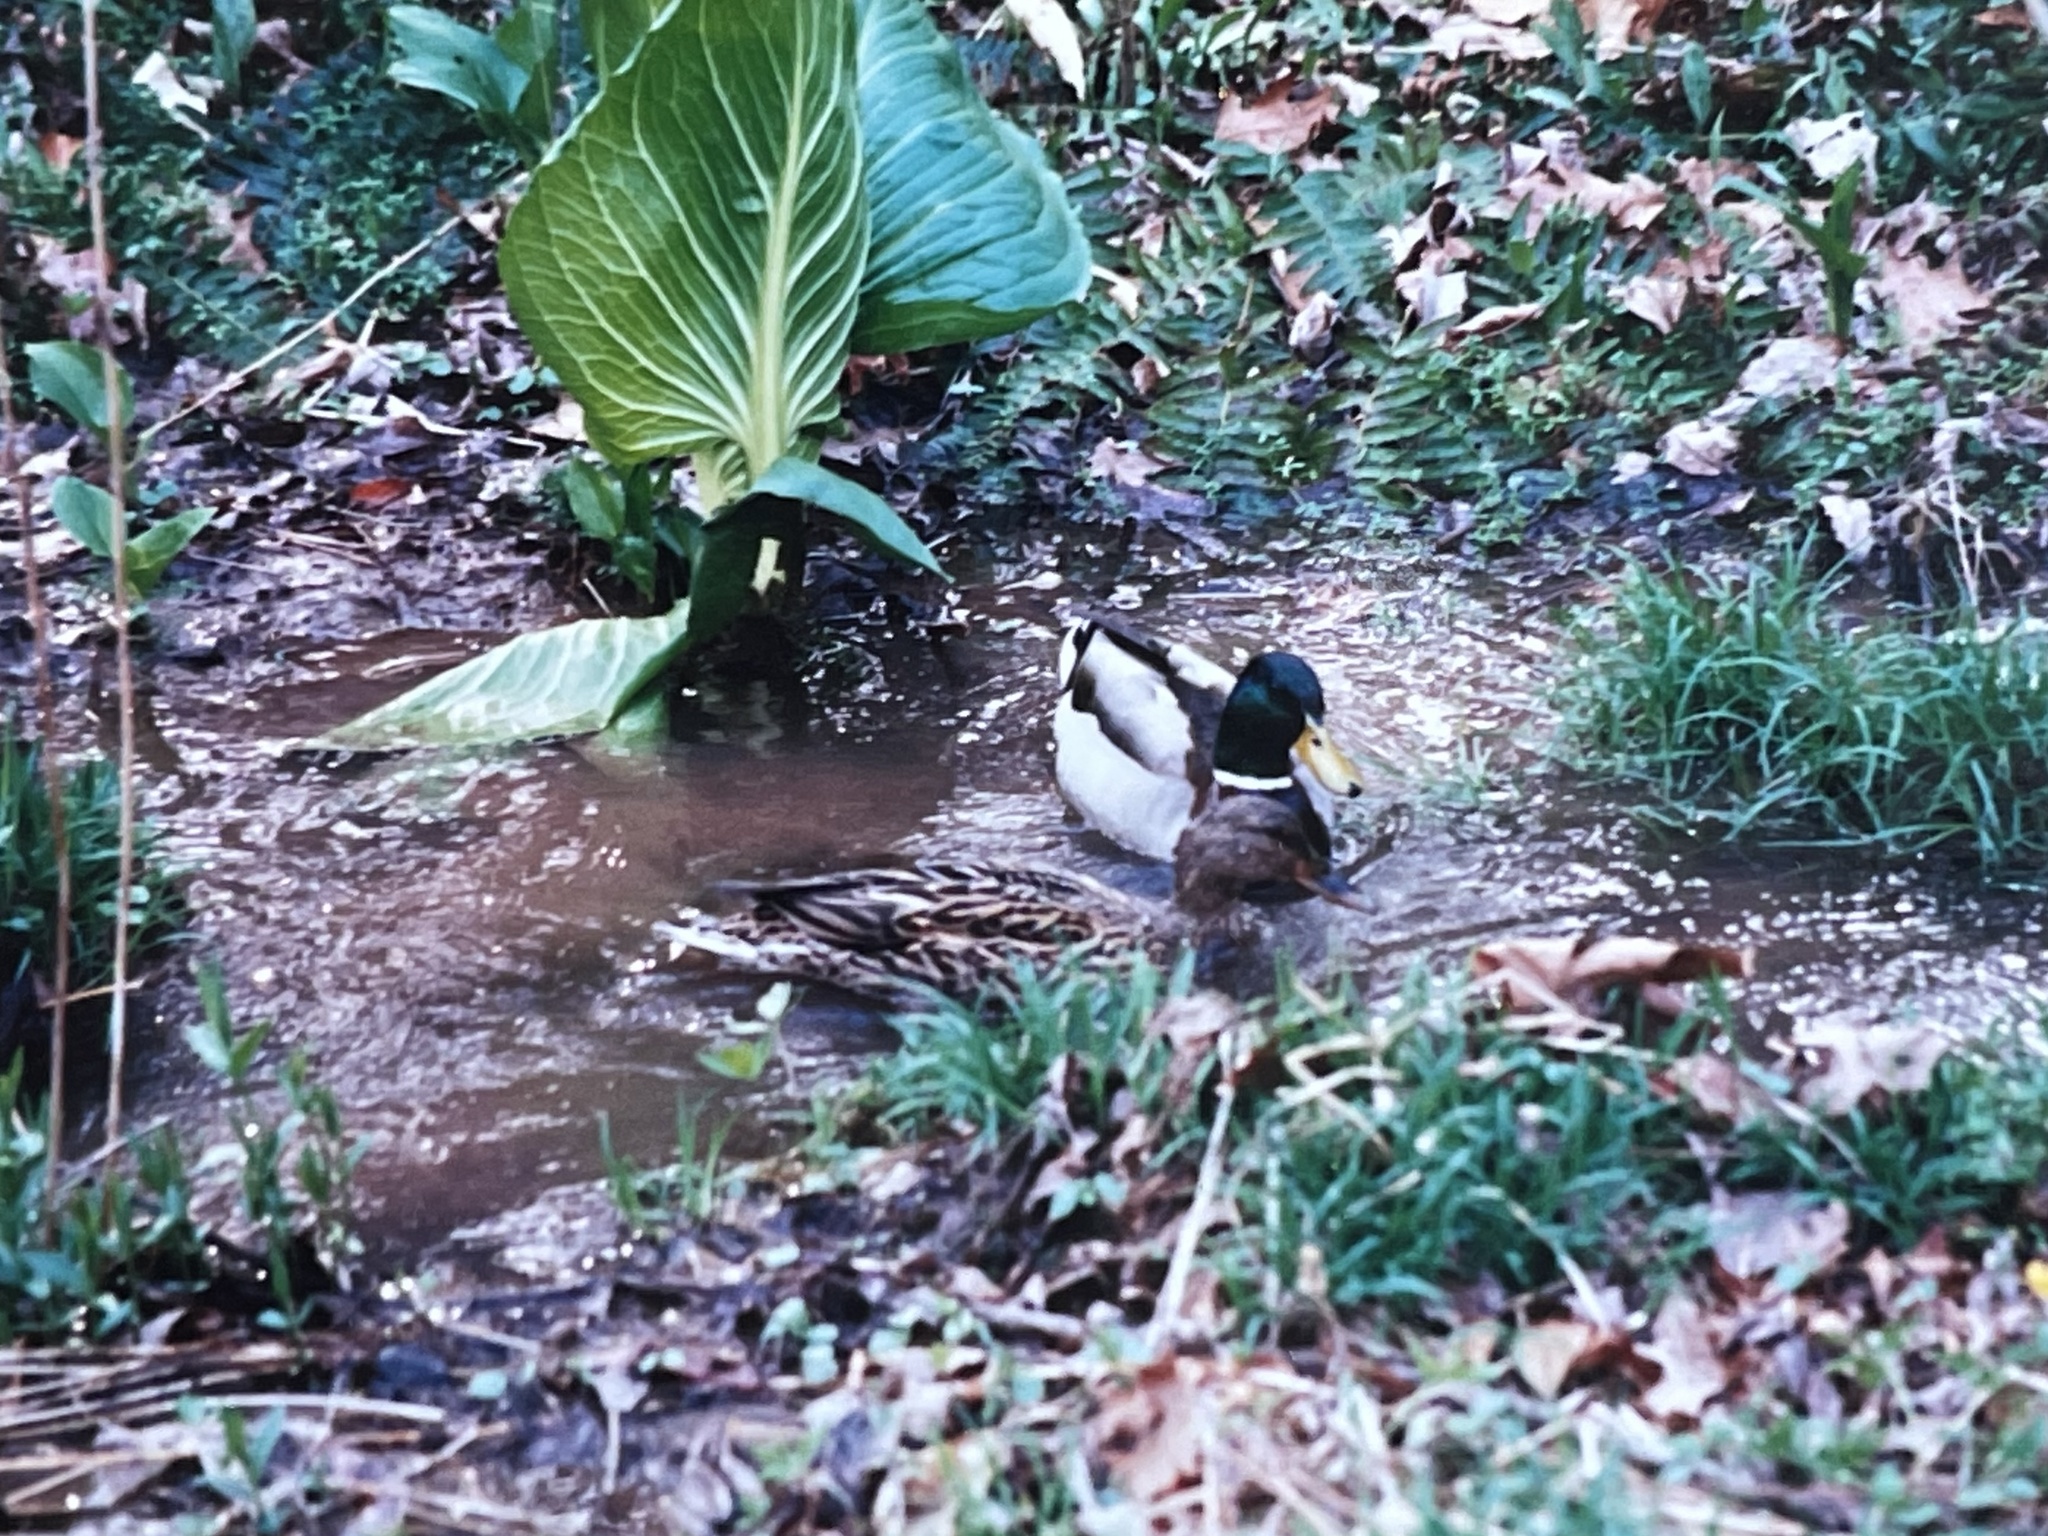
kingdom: Plantae
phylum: Tracheophyta
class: Liliopsida
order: Alismatales
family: Araceae
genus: Symplocarpus
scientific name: Symplocarpus foetidus
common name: Eastern skunk cabbage
